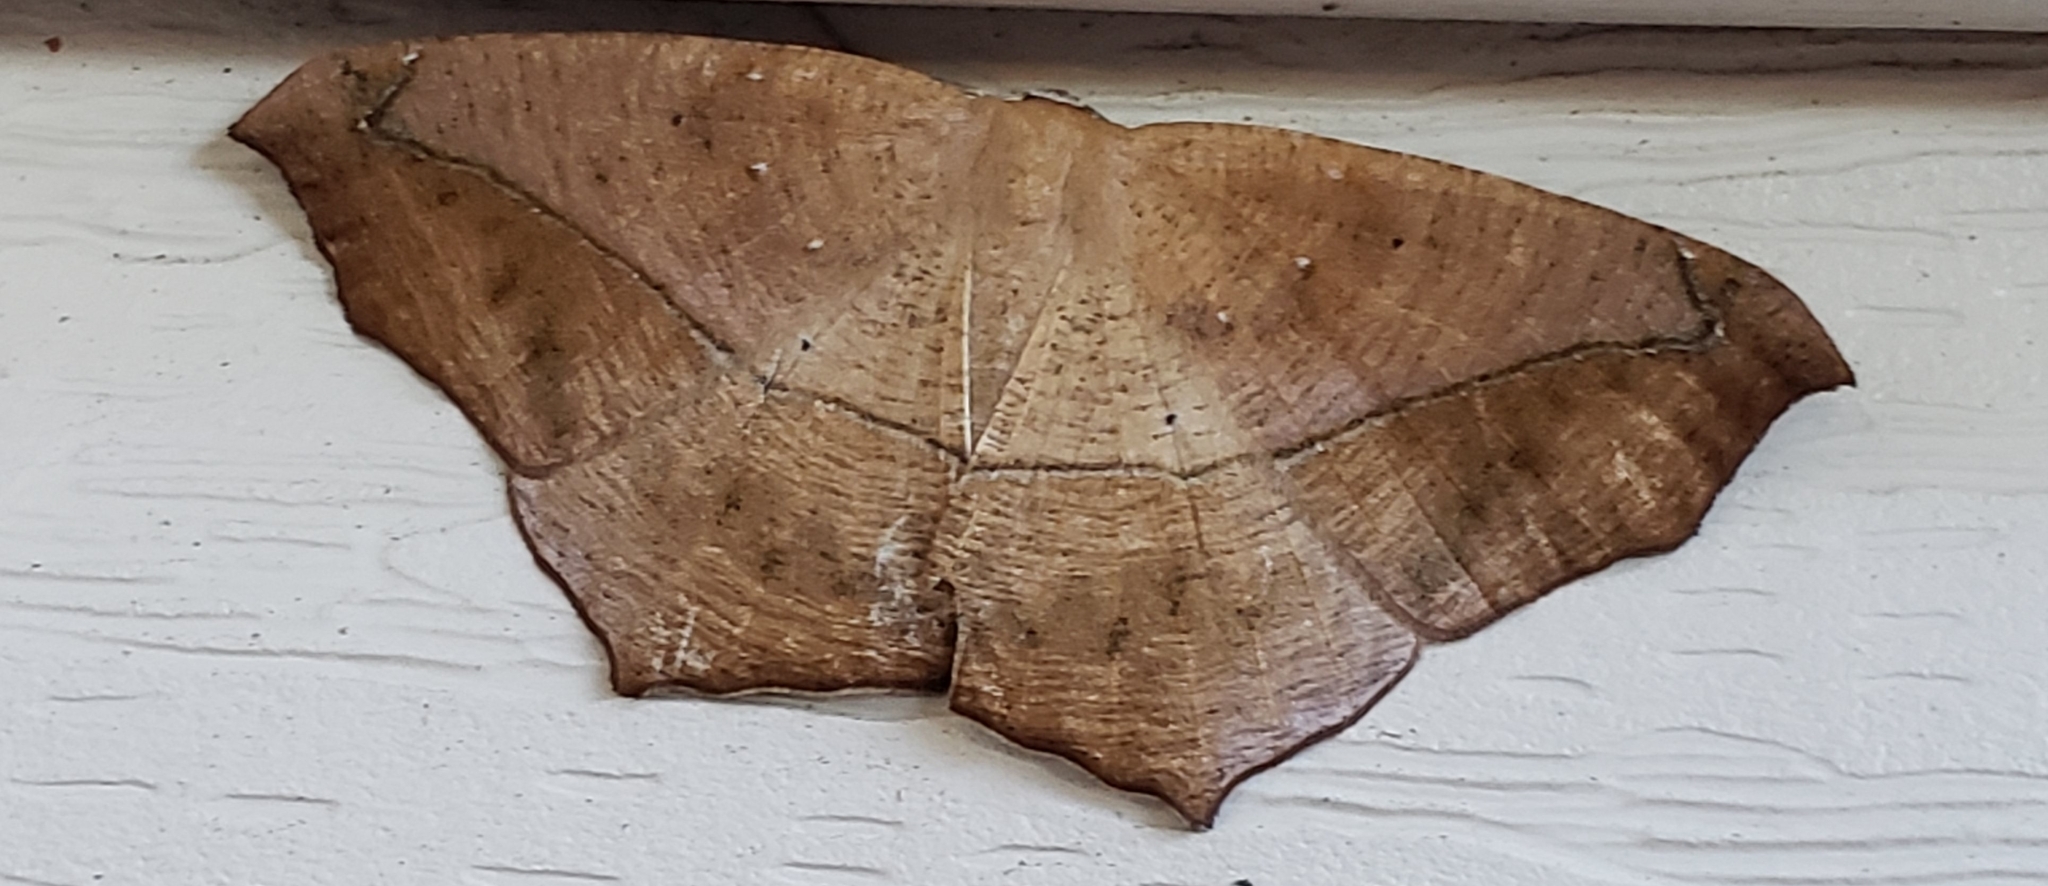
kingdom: Animalia
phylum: Arthropoda
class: Insecta
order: Lepidoptera
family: Geometridae
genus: Prochoerodes
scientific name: Prochoerodes lineola
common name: Large maple spanworm
